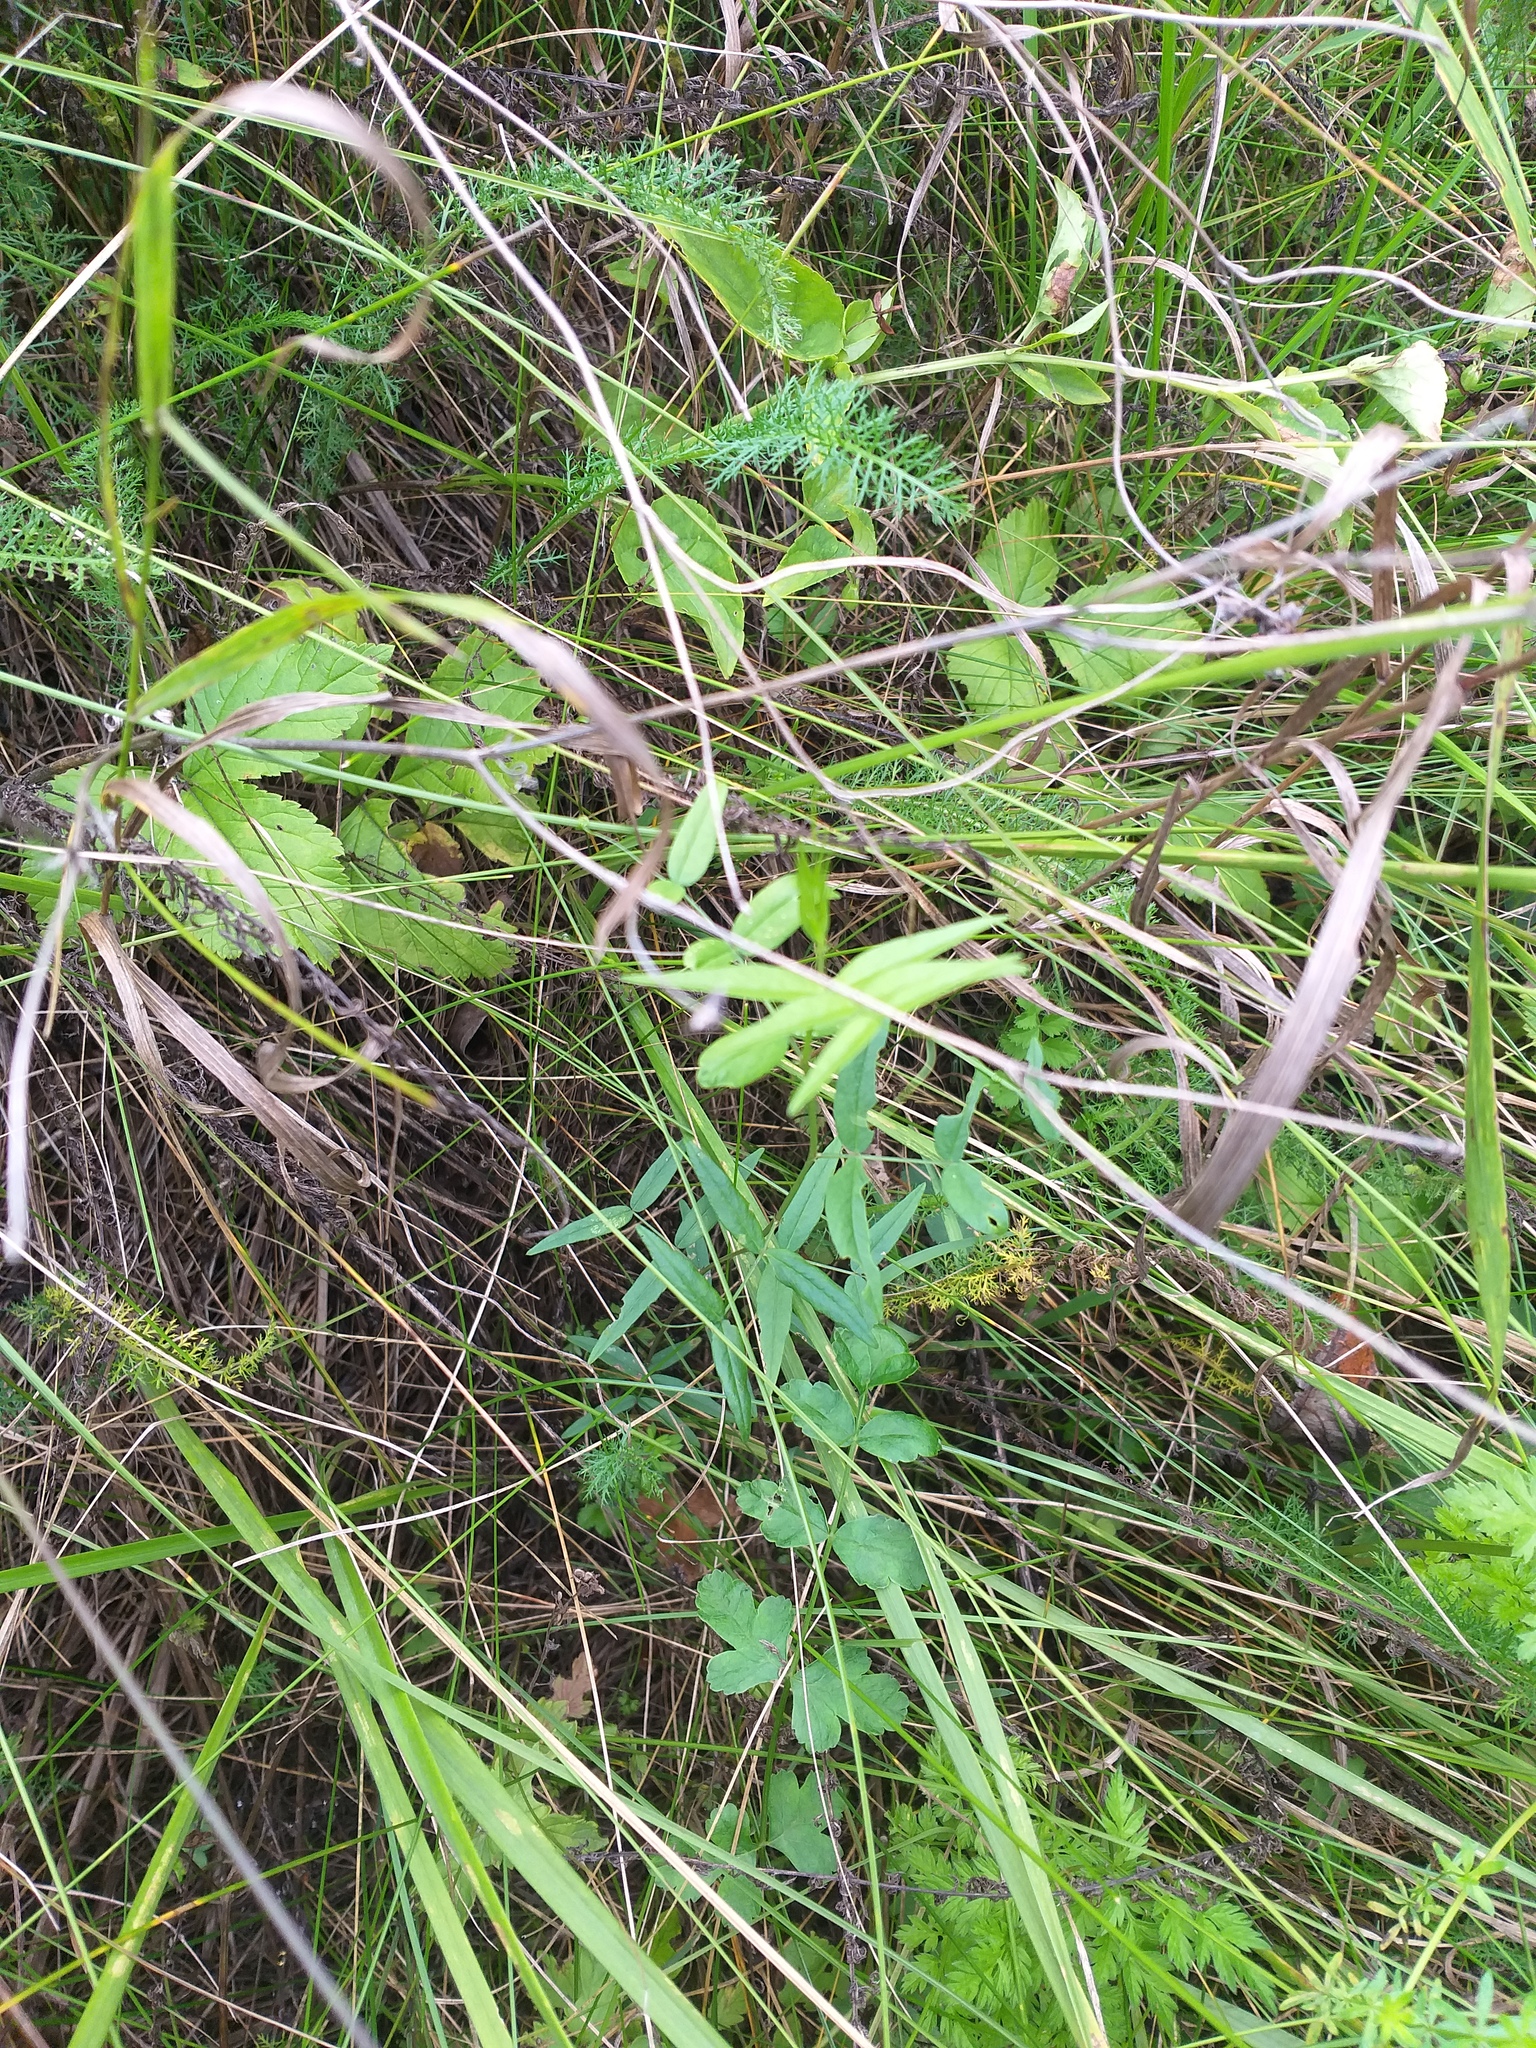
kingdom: Plantae
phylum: Tracheophyta
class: Magnoliopsida
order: Fabales
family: Fabaceae
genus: Vicia
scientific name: Vicia sepium
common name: Bush vetch
